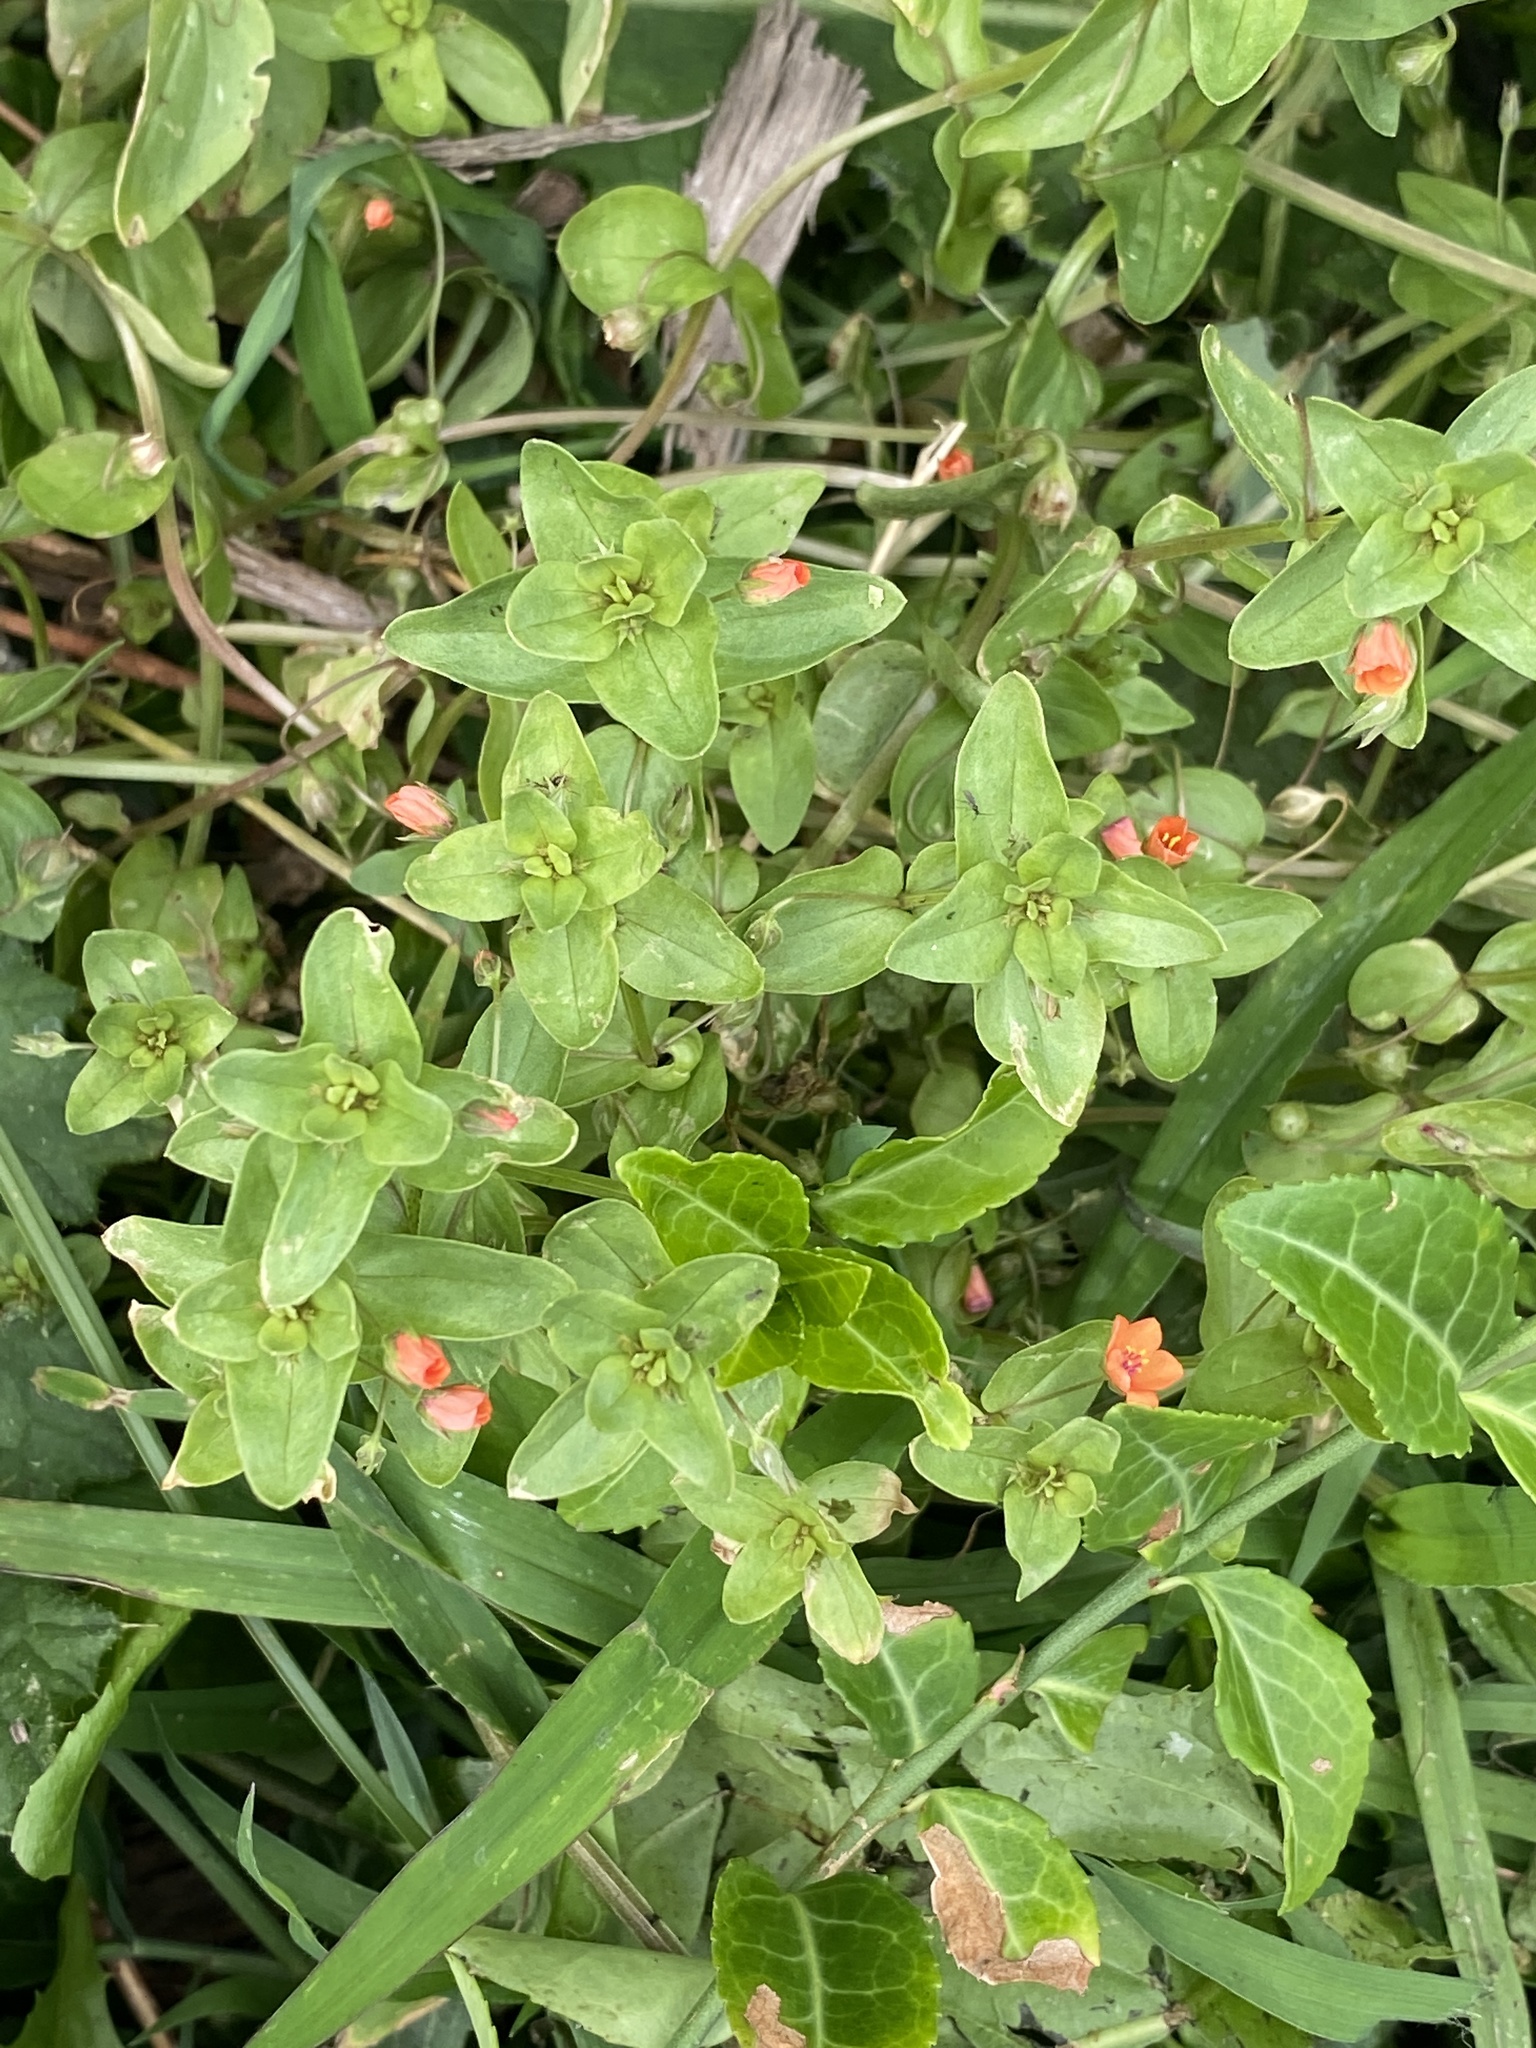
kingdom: Plantae
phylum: Tracheophyta
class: Magnoliopsida
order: Ericales
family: Primulaceae
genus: Lysimachia
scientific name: Lysimachia arvensis
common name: Scarlet pimpernel
